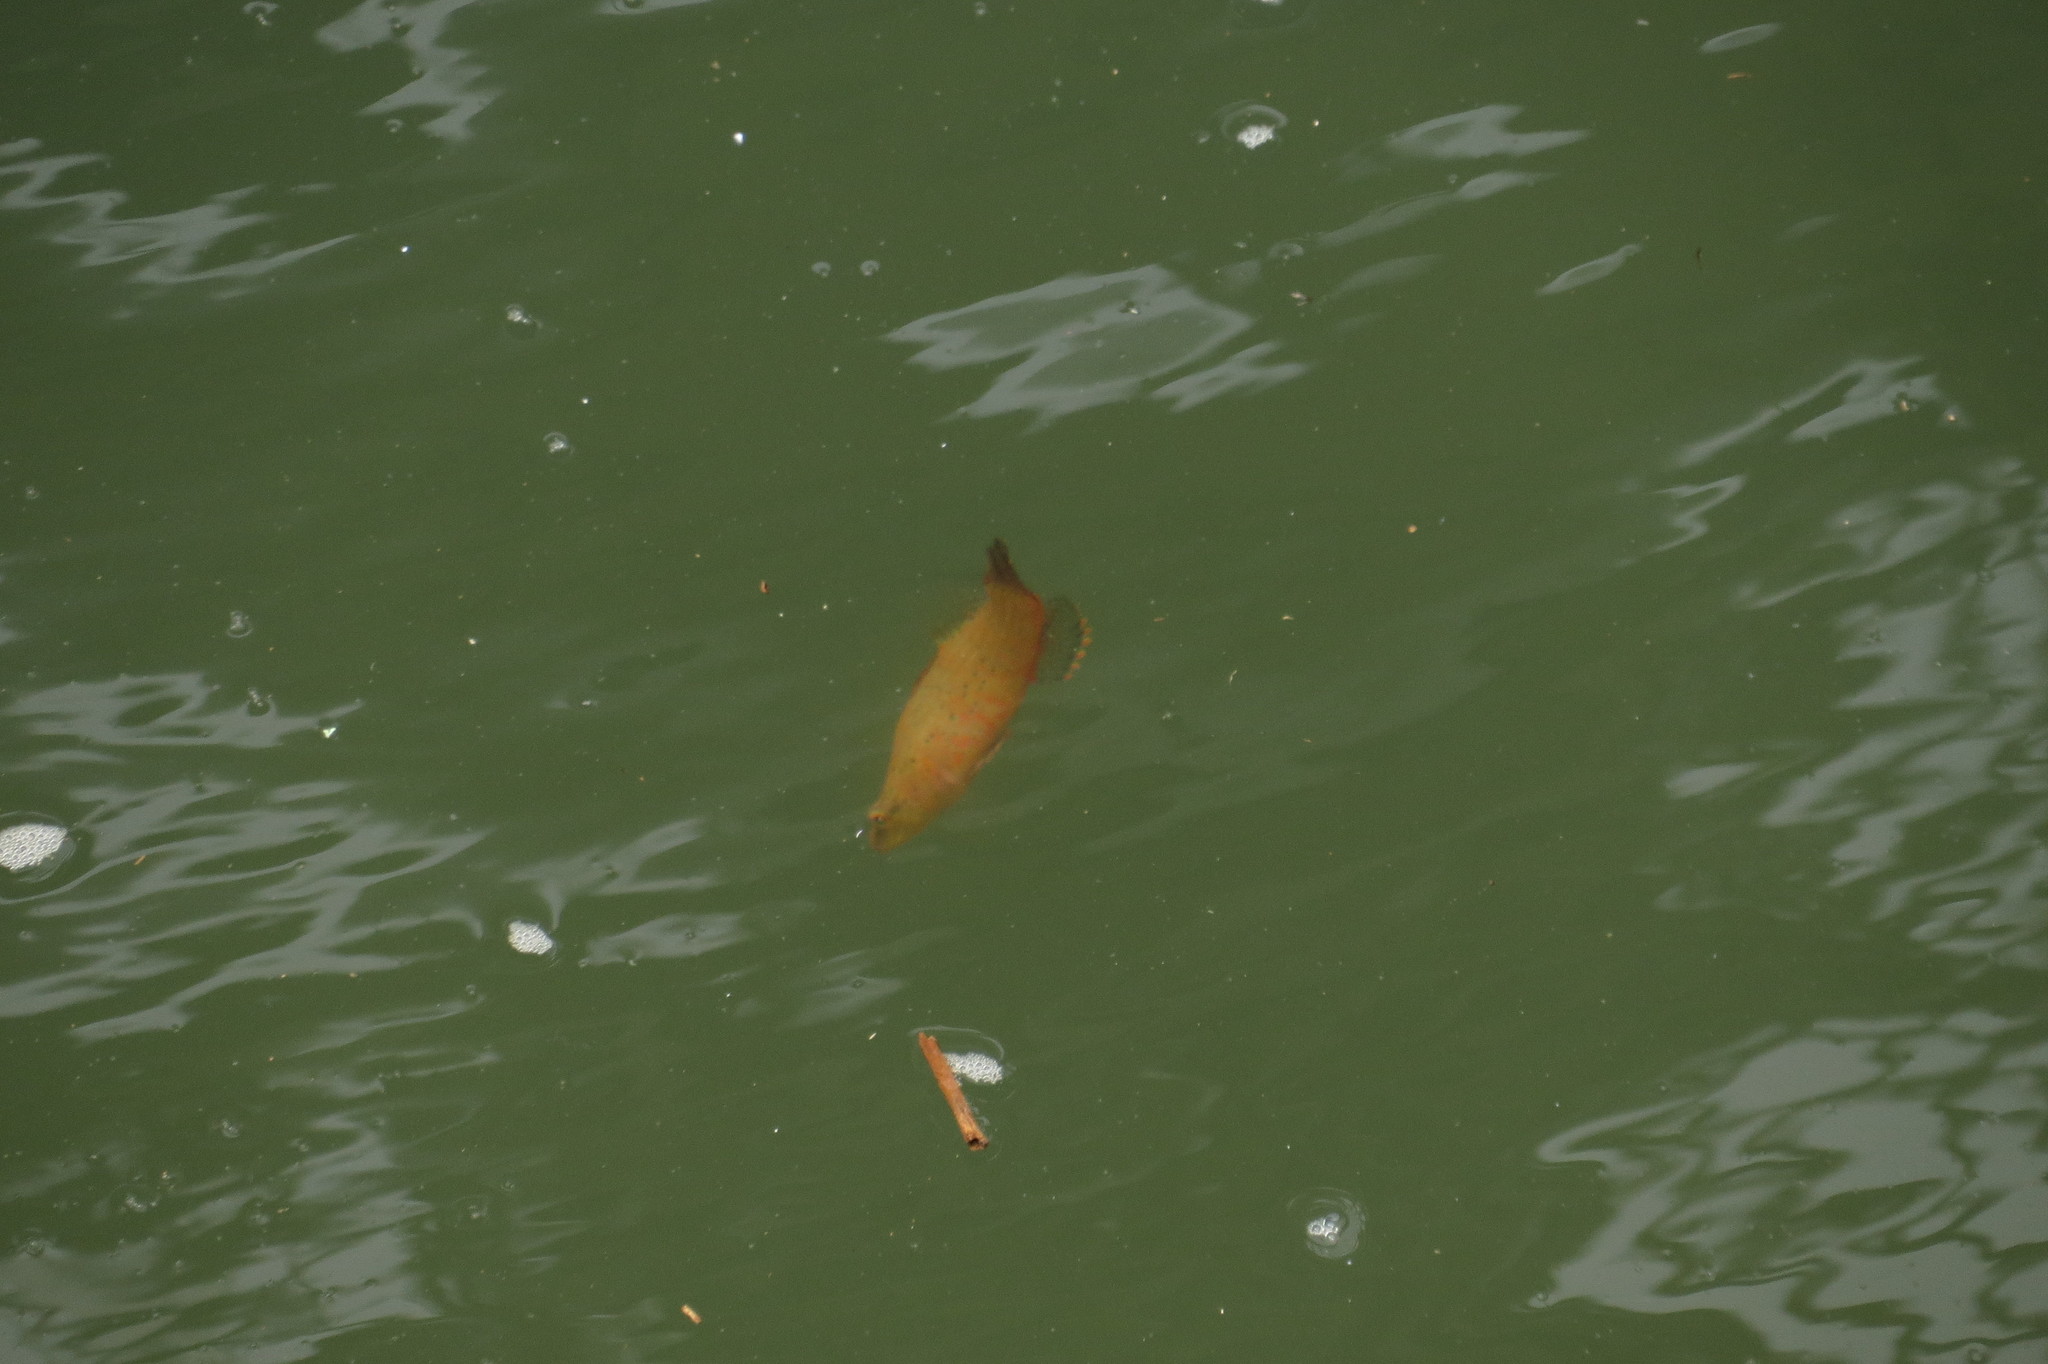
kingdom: Animalia
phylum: Chordata
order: Perciformes
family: Eleotridae
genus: Butis
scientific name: Butis butis
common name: Duckbill sleeper
